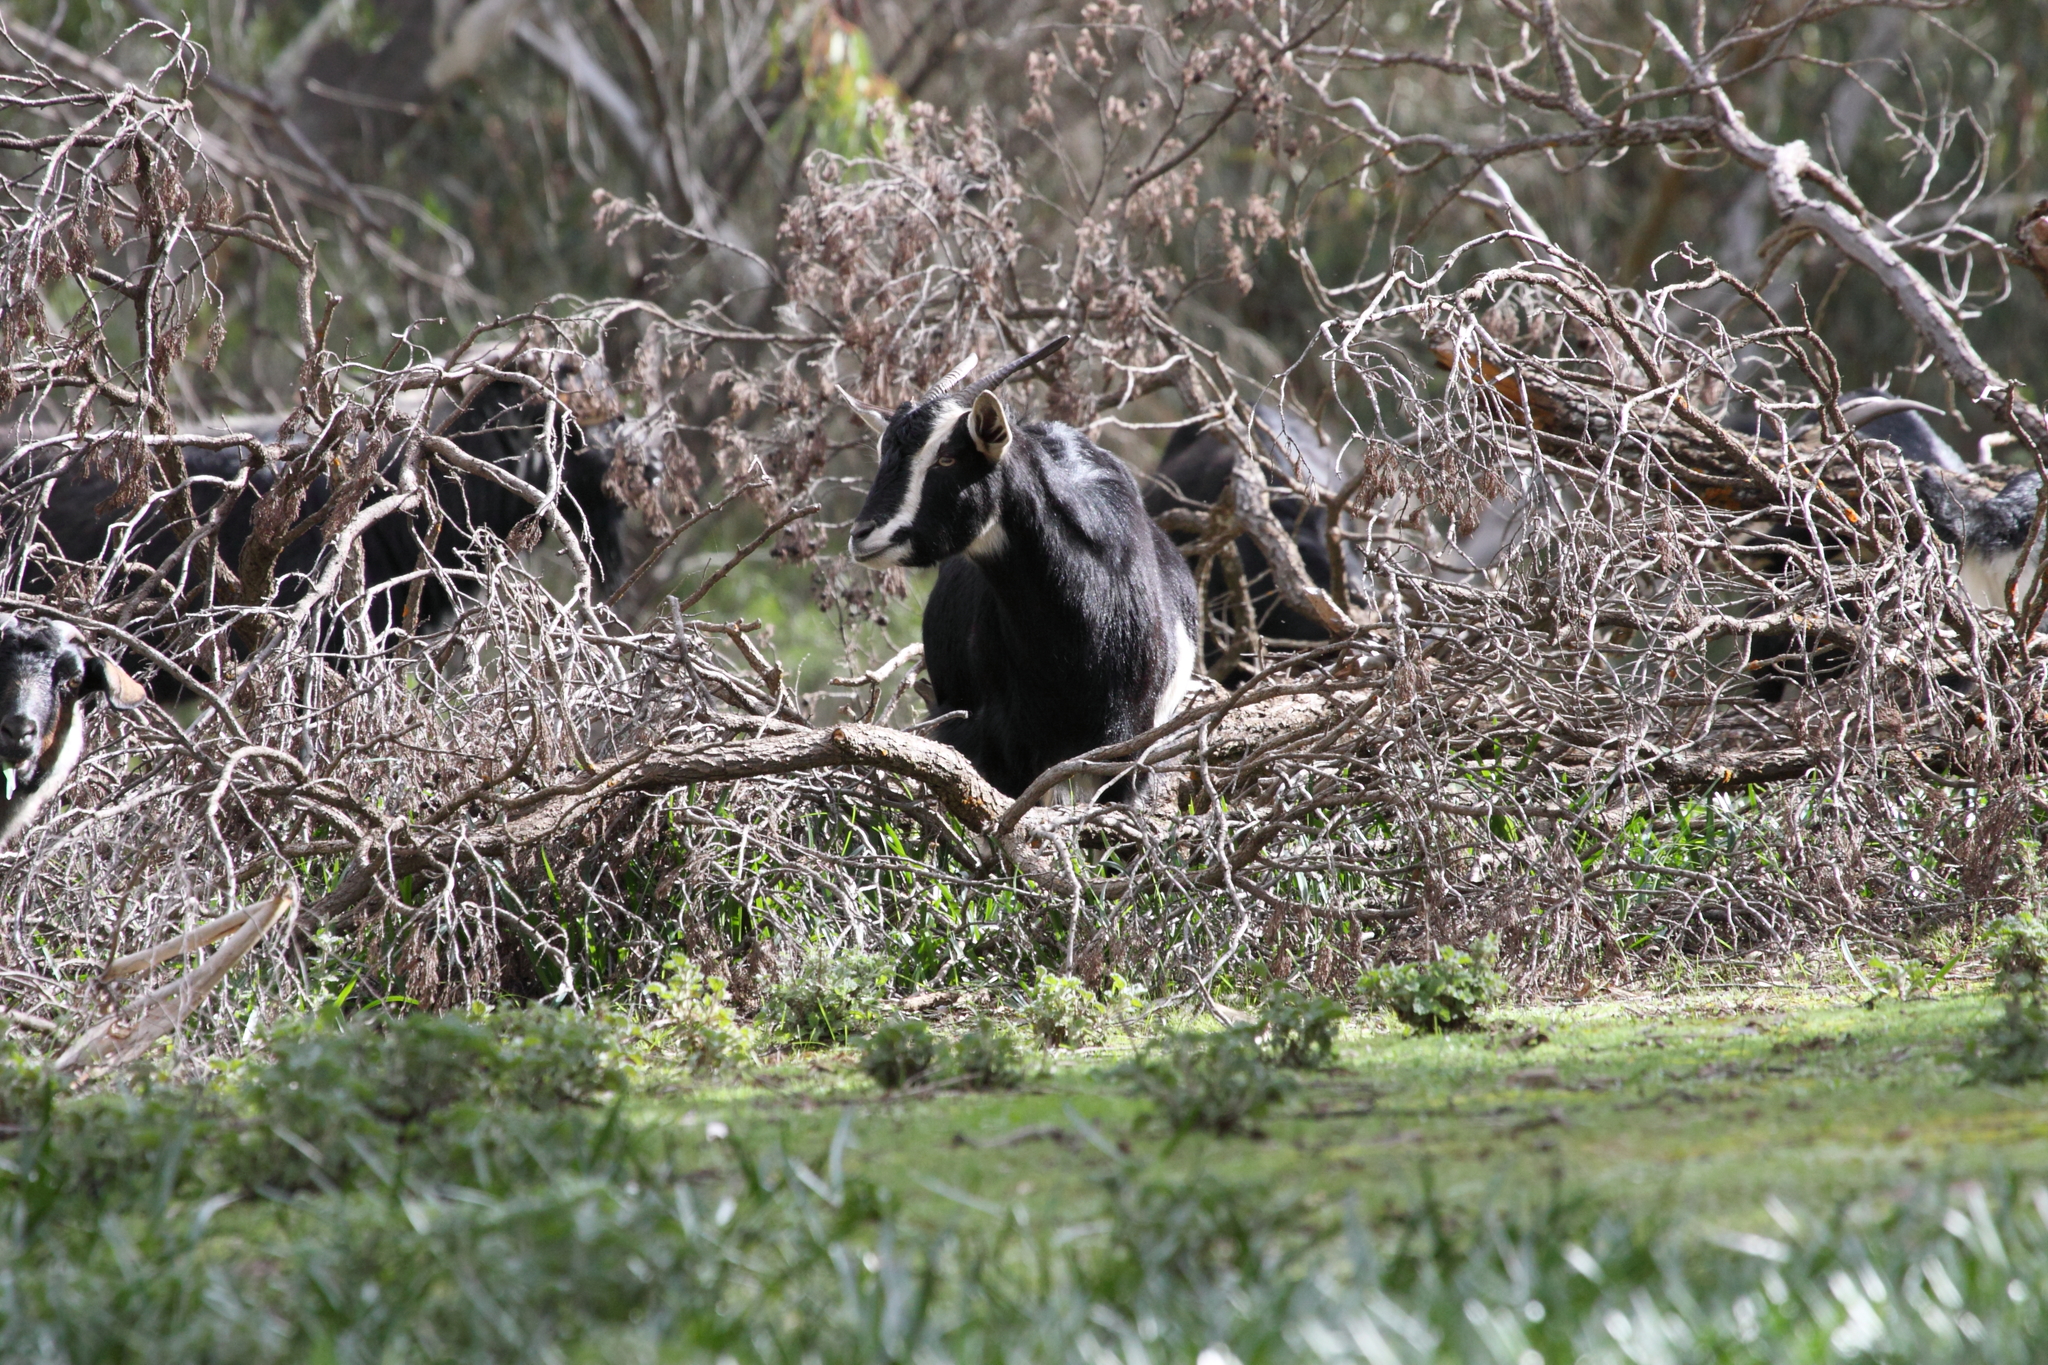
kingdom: Animalia
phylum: Chordata
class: Mammalia
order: Artiodactyla
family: Bovidae
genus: Capra
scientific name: Capra hircus
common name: Domestic goat
